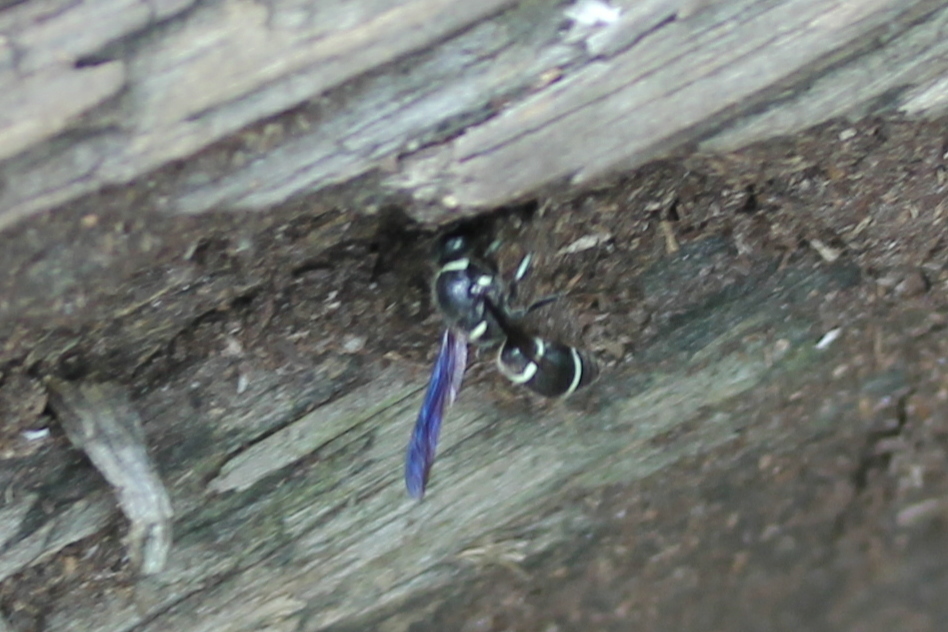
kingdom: Animalia
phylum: Arthropoda
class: Insecta
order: Hymenoptera
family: Eumenidae
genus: Euodynerus
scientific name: Euodynerus schwarzi
